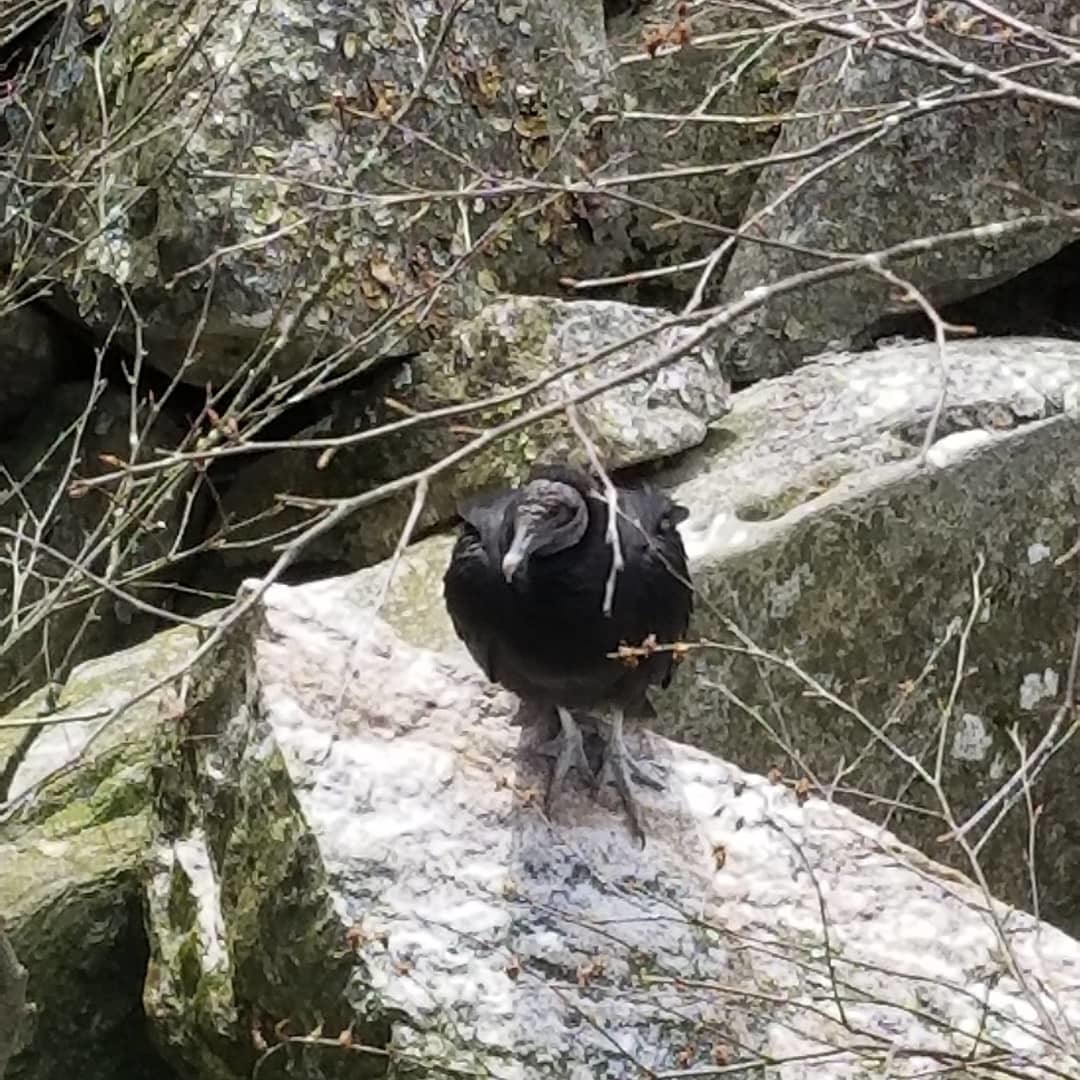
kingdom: Animalia
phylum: Chordata
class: Aves
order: Accipitriformes
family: Cathartidae
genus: Coragyps
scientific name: Coragyps atratus
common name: Black vulture
